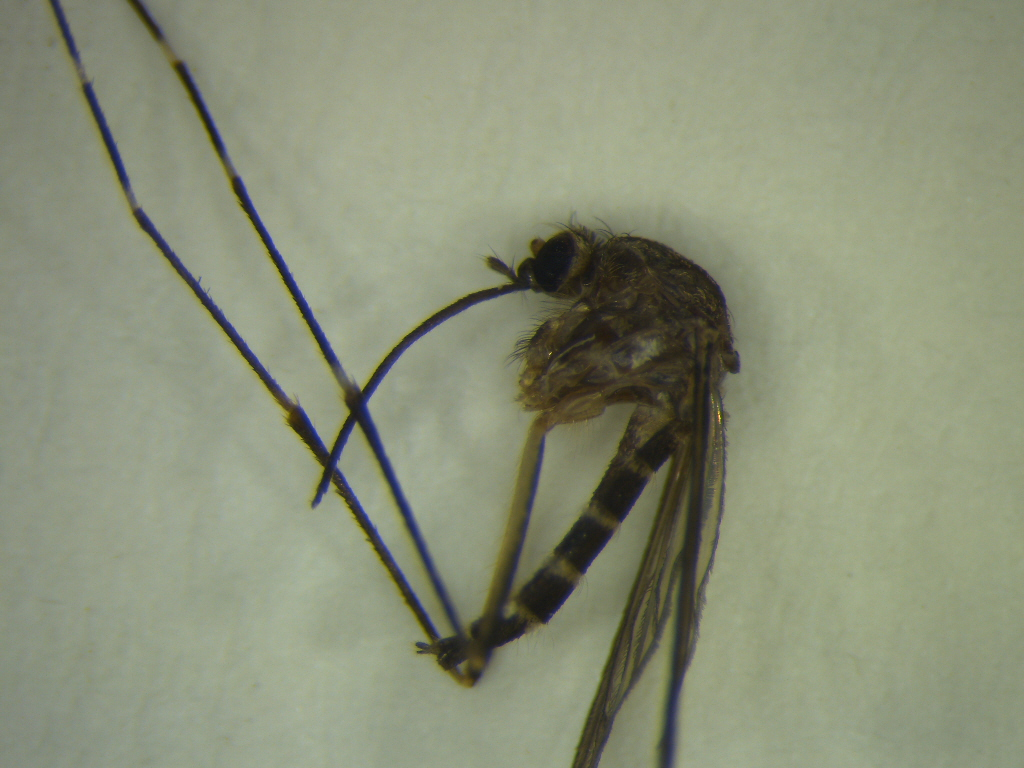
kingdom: Animalia
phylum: Arthropoda
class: Insecta
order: Diptera
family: Culicidae
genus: Aedes
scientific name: Aedes antipodeus
